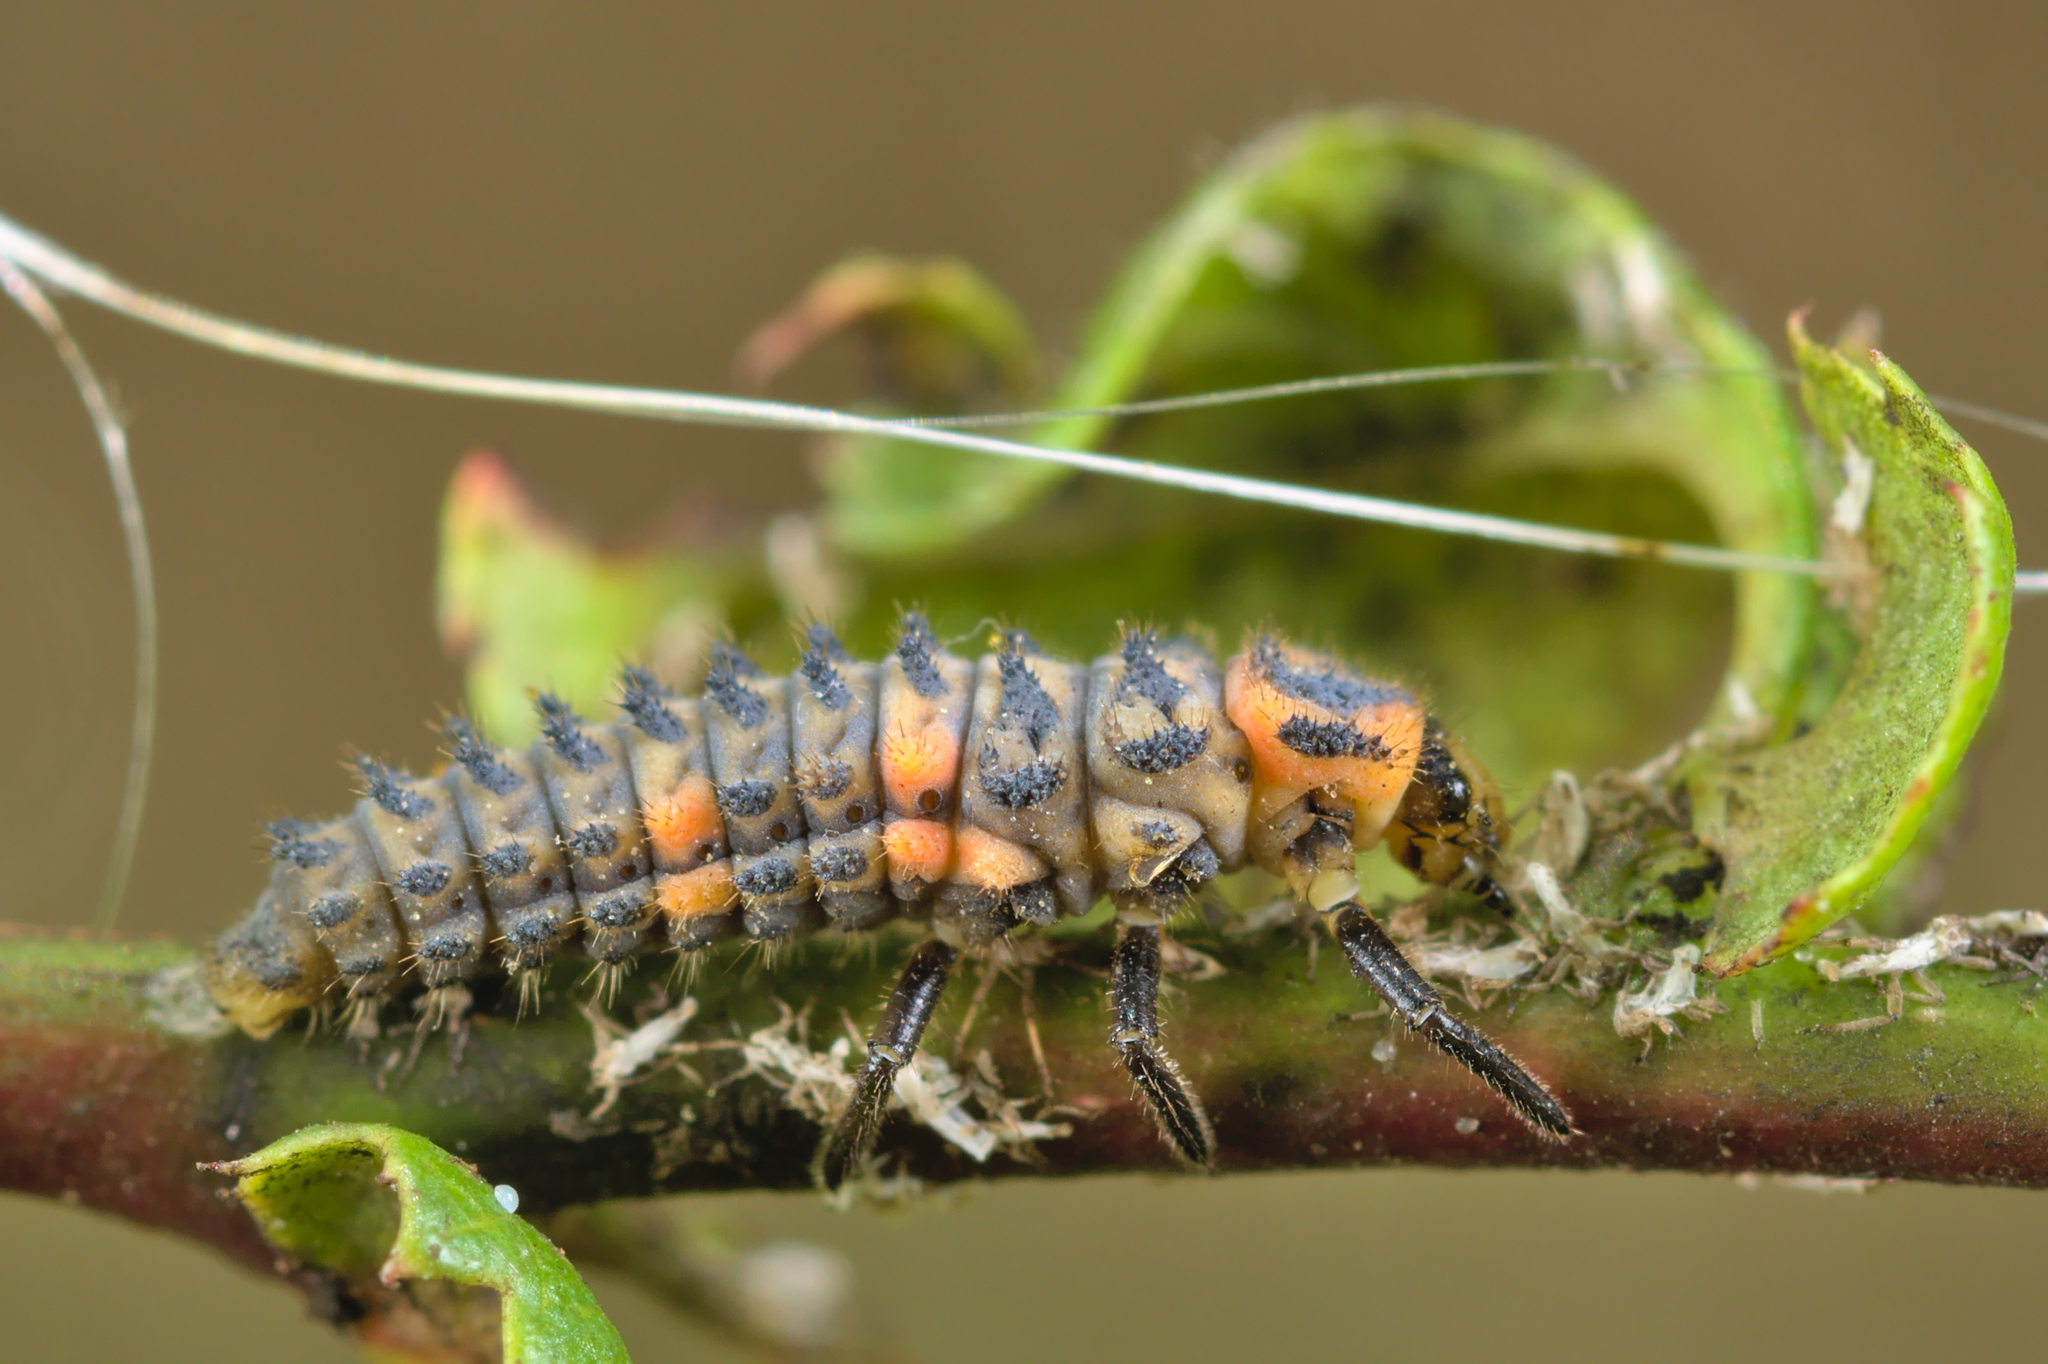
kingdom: Animalia
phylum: Arthropoda
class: Insecta
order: Coleoptera
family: Coccinellidae
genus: Coccinella
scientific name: Coccinella magnifica
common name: Scarce 7-spot ladybird
